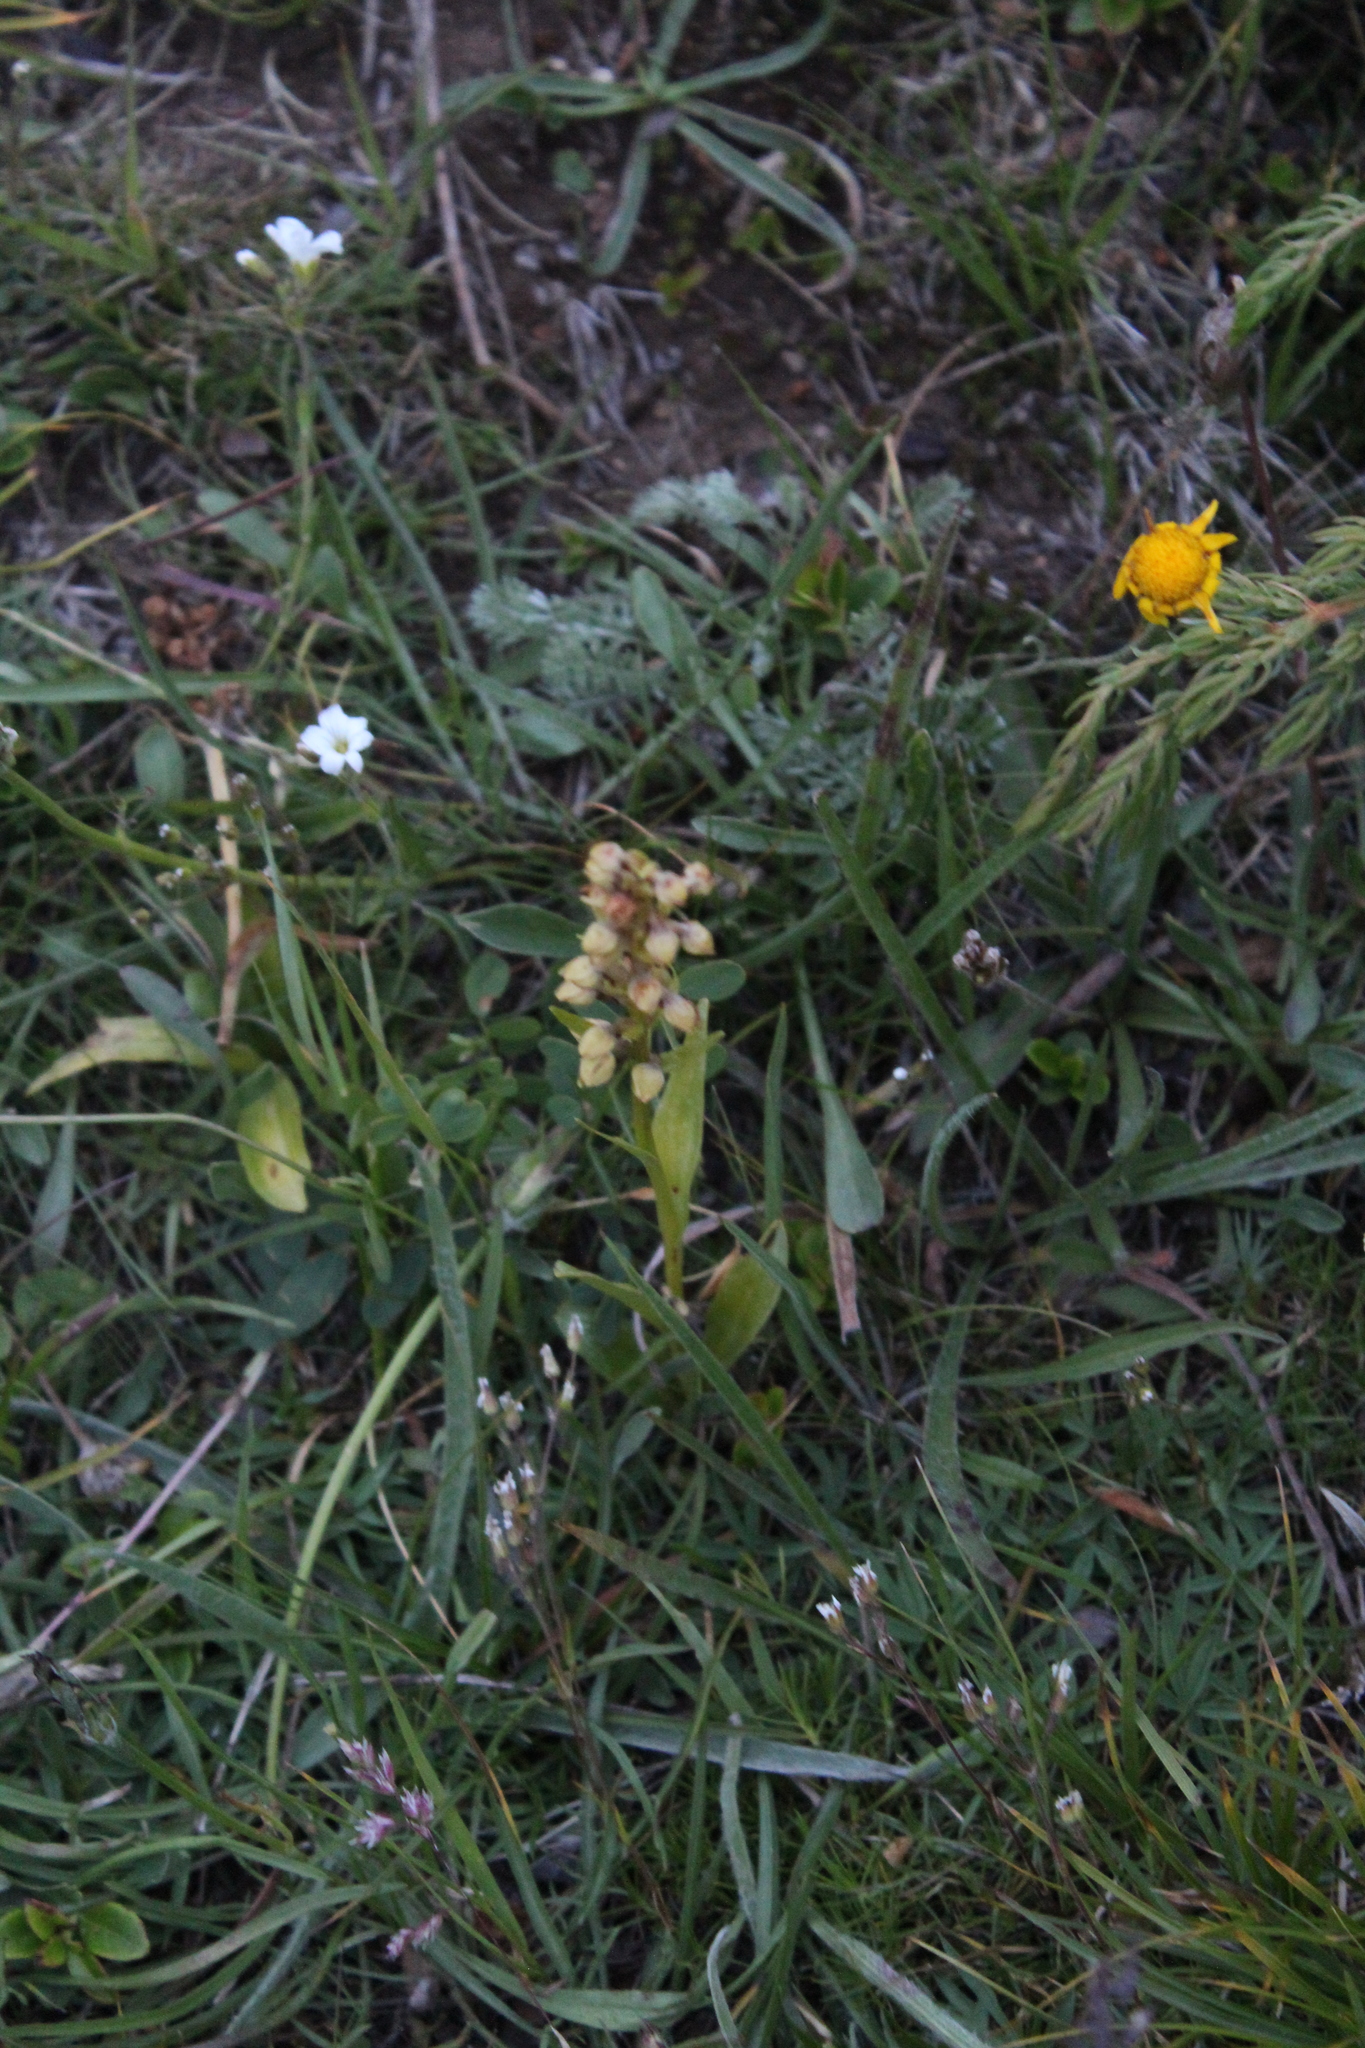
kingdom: Plantae
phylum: Tracheophyta
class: Liliopsida
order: Asparagales
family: Orchidaceae
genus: Dactylorhiza
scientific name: Dactylorhiza viridis
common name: Longbract frog orchid
